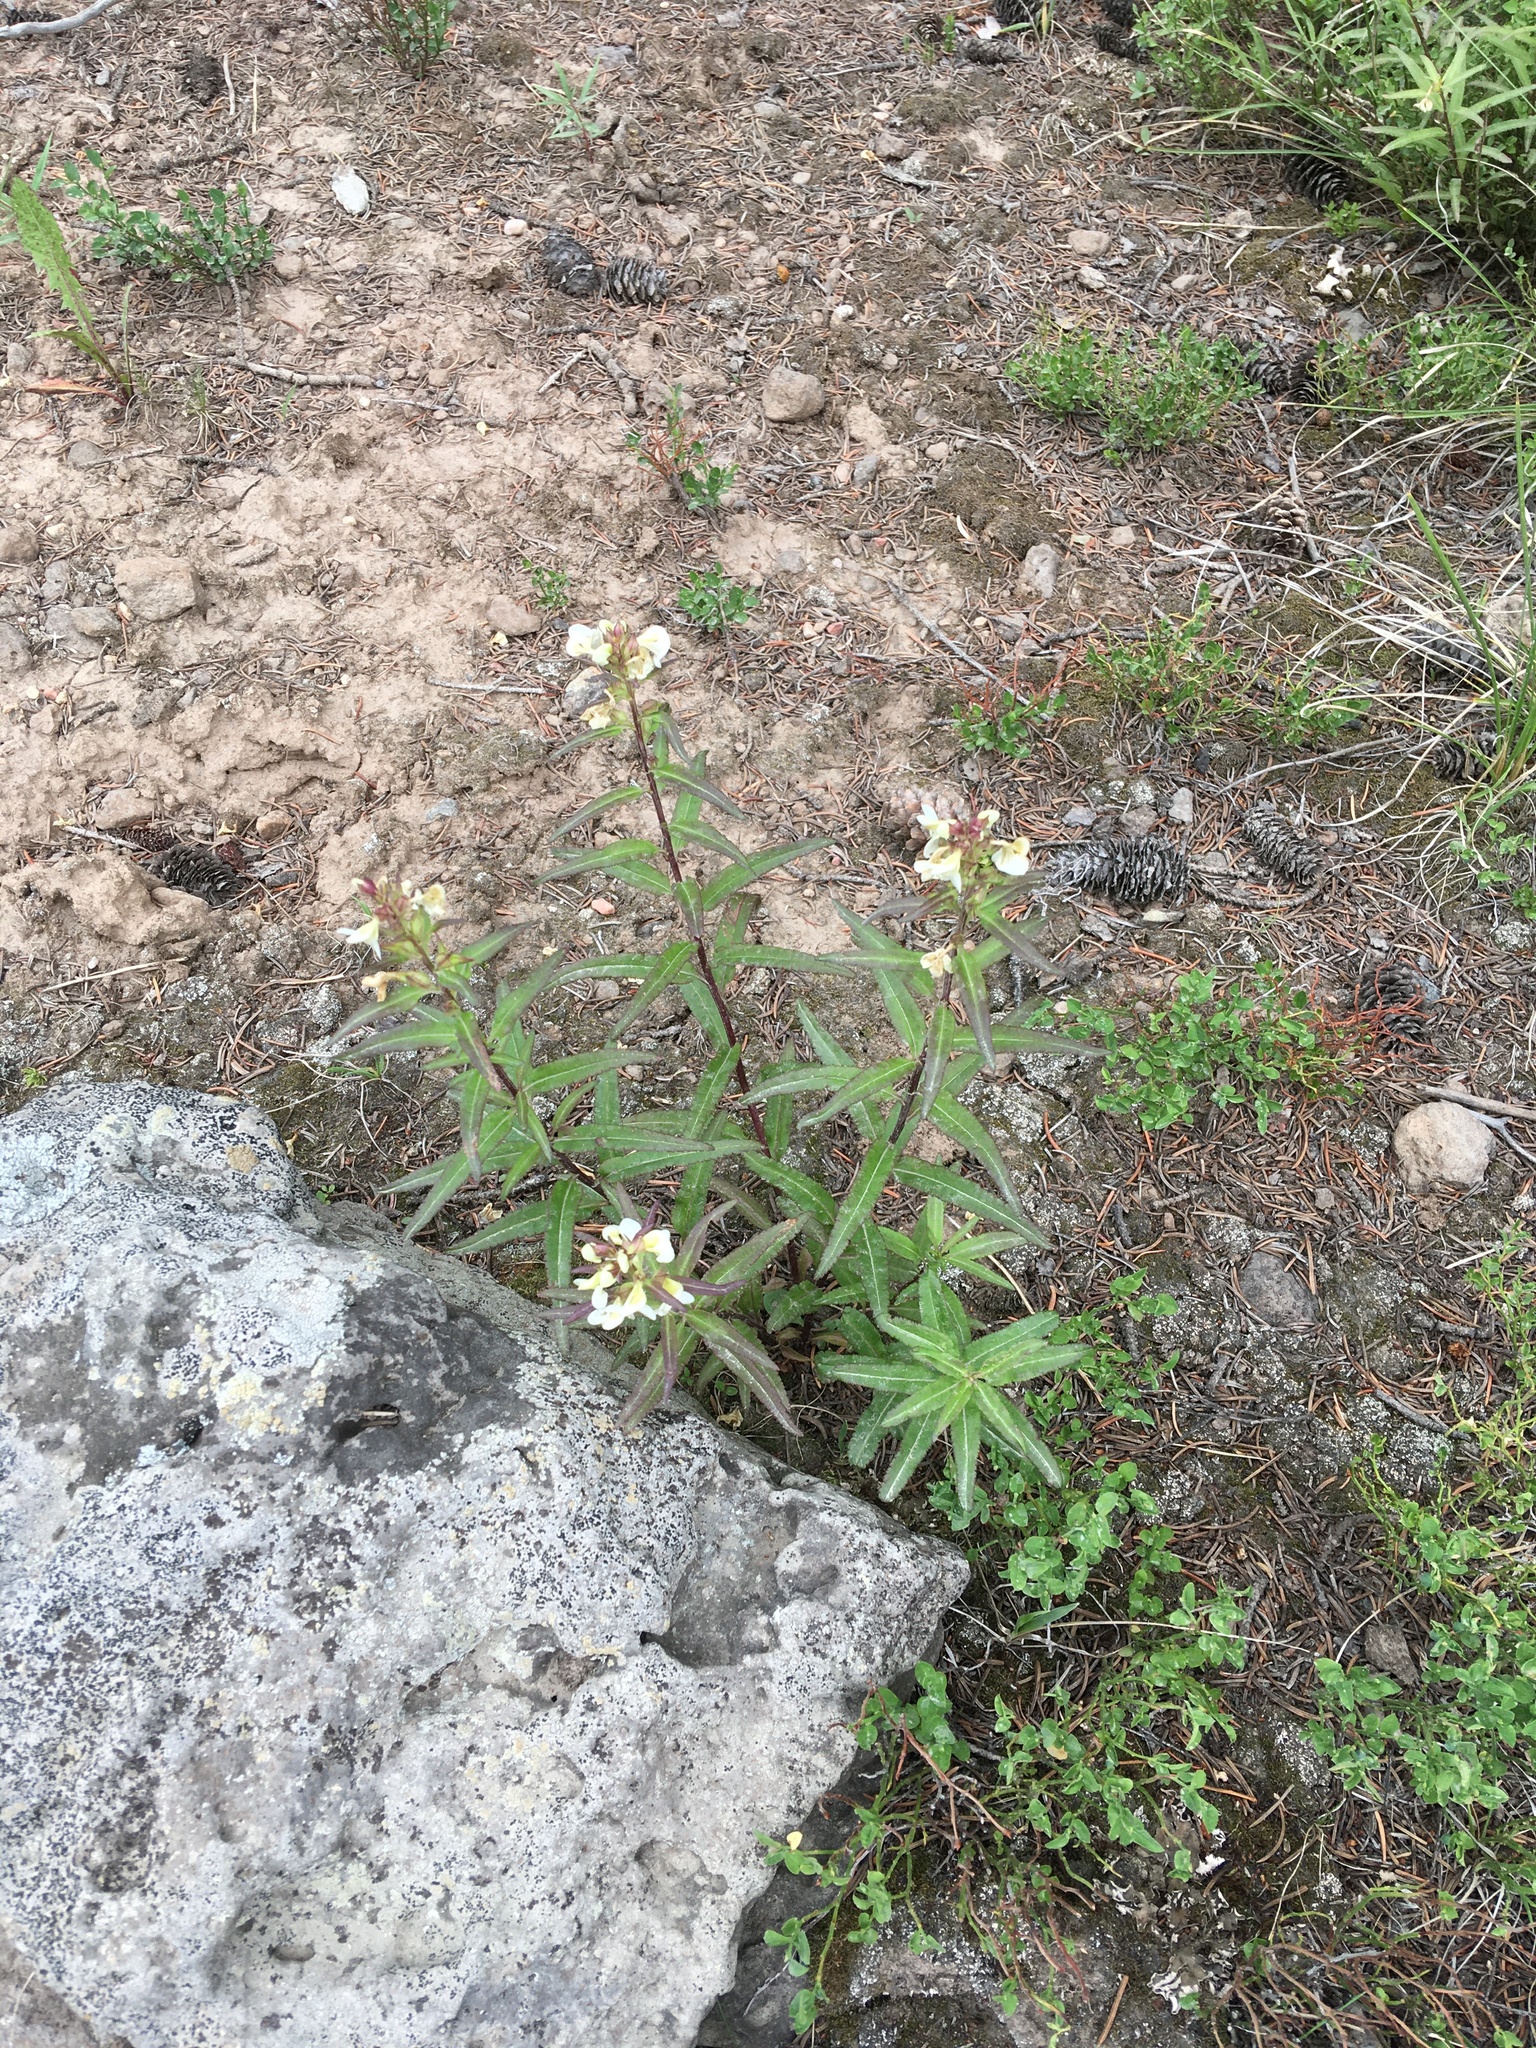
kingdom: Plantae
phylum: Tracheophyta
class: Magnoliopsida
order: Lamiales
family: Orobanchaceae
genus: Pedicularis
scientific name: Pedicularis racemosa
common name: Leafy lousewort
